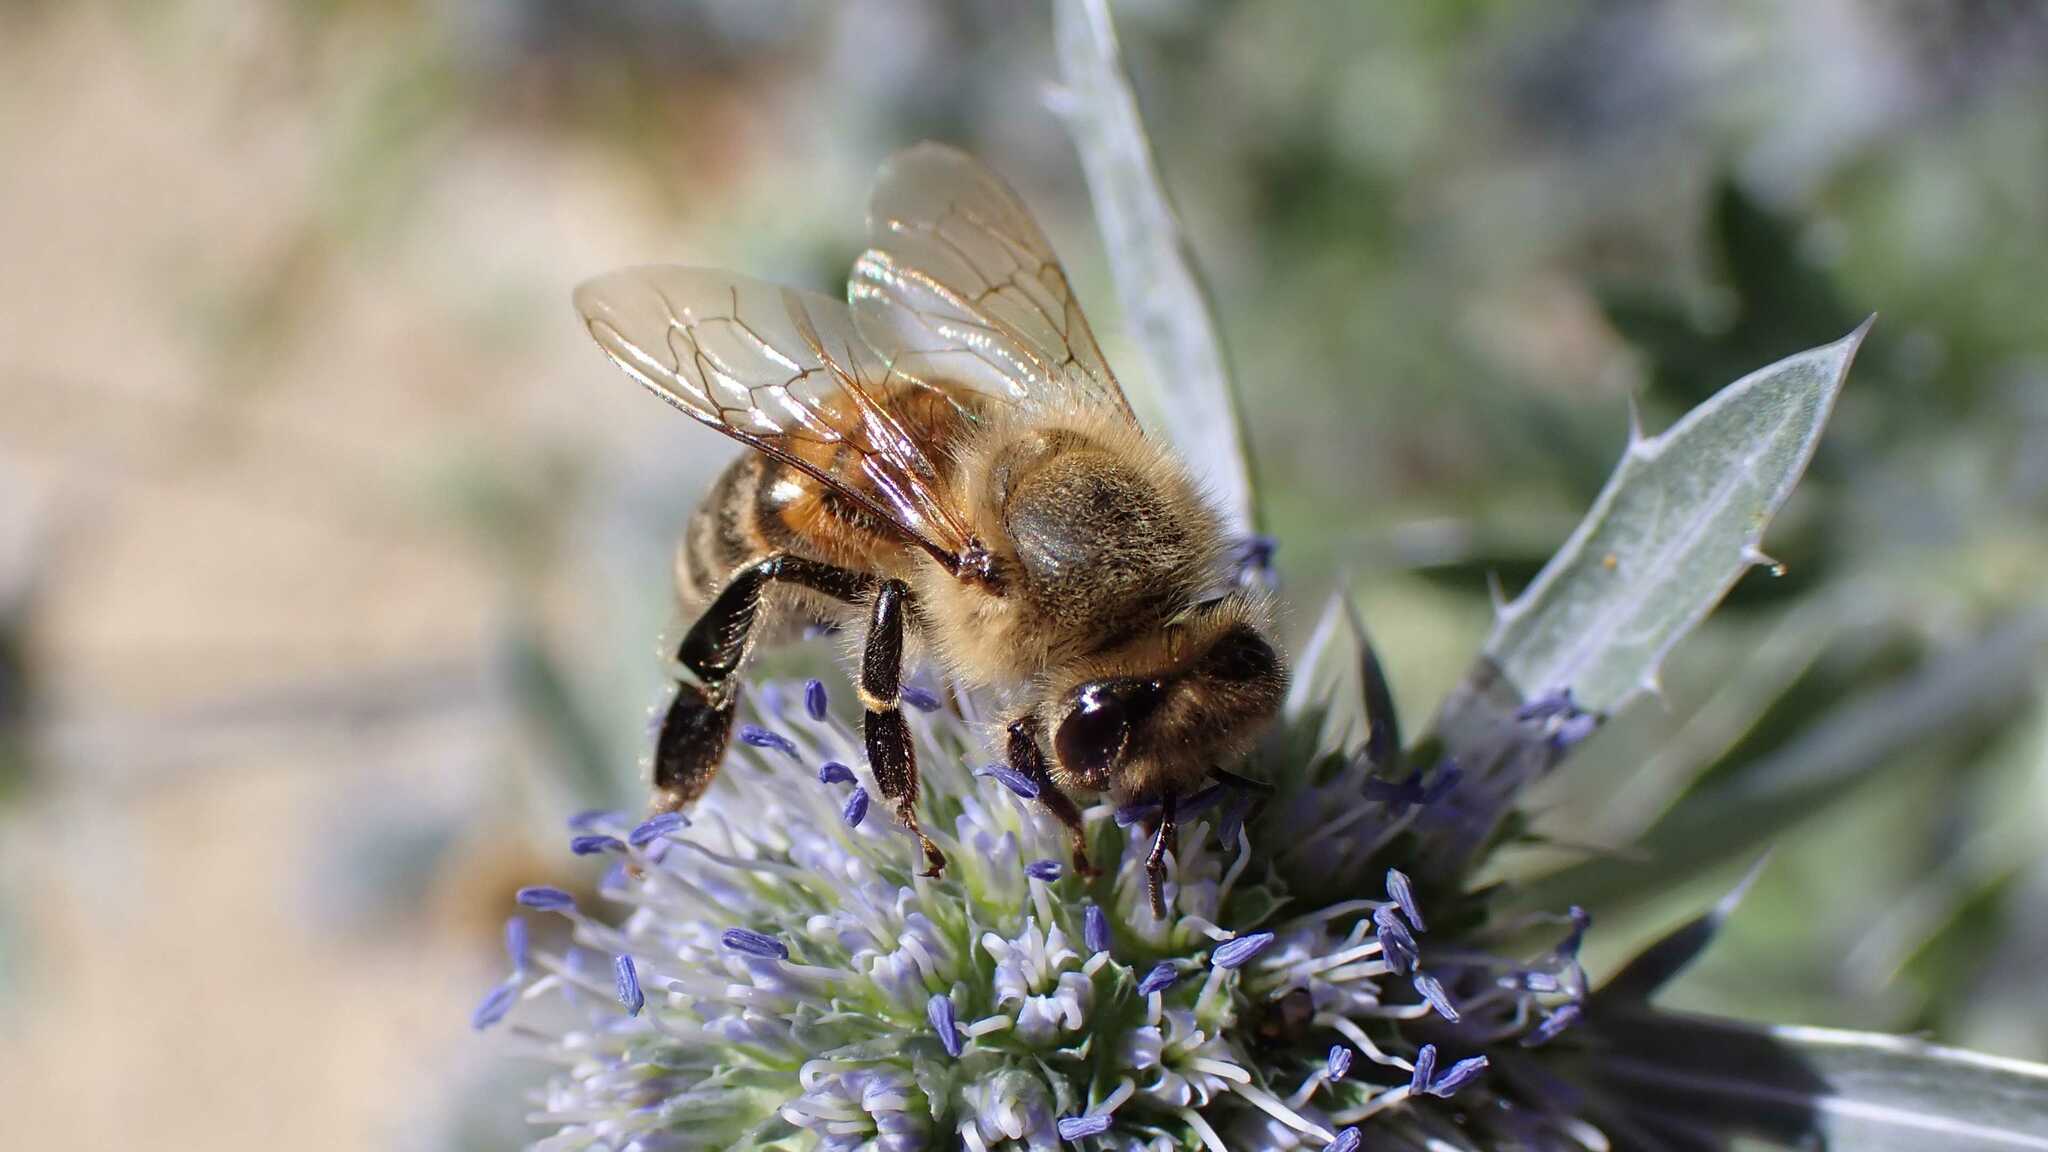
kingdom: Animalia
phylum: Arthropoda
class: Insecta
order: Hymenoptera
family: Apidae
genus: Apis
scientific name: Apis mellifera
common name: Honey bee
